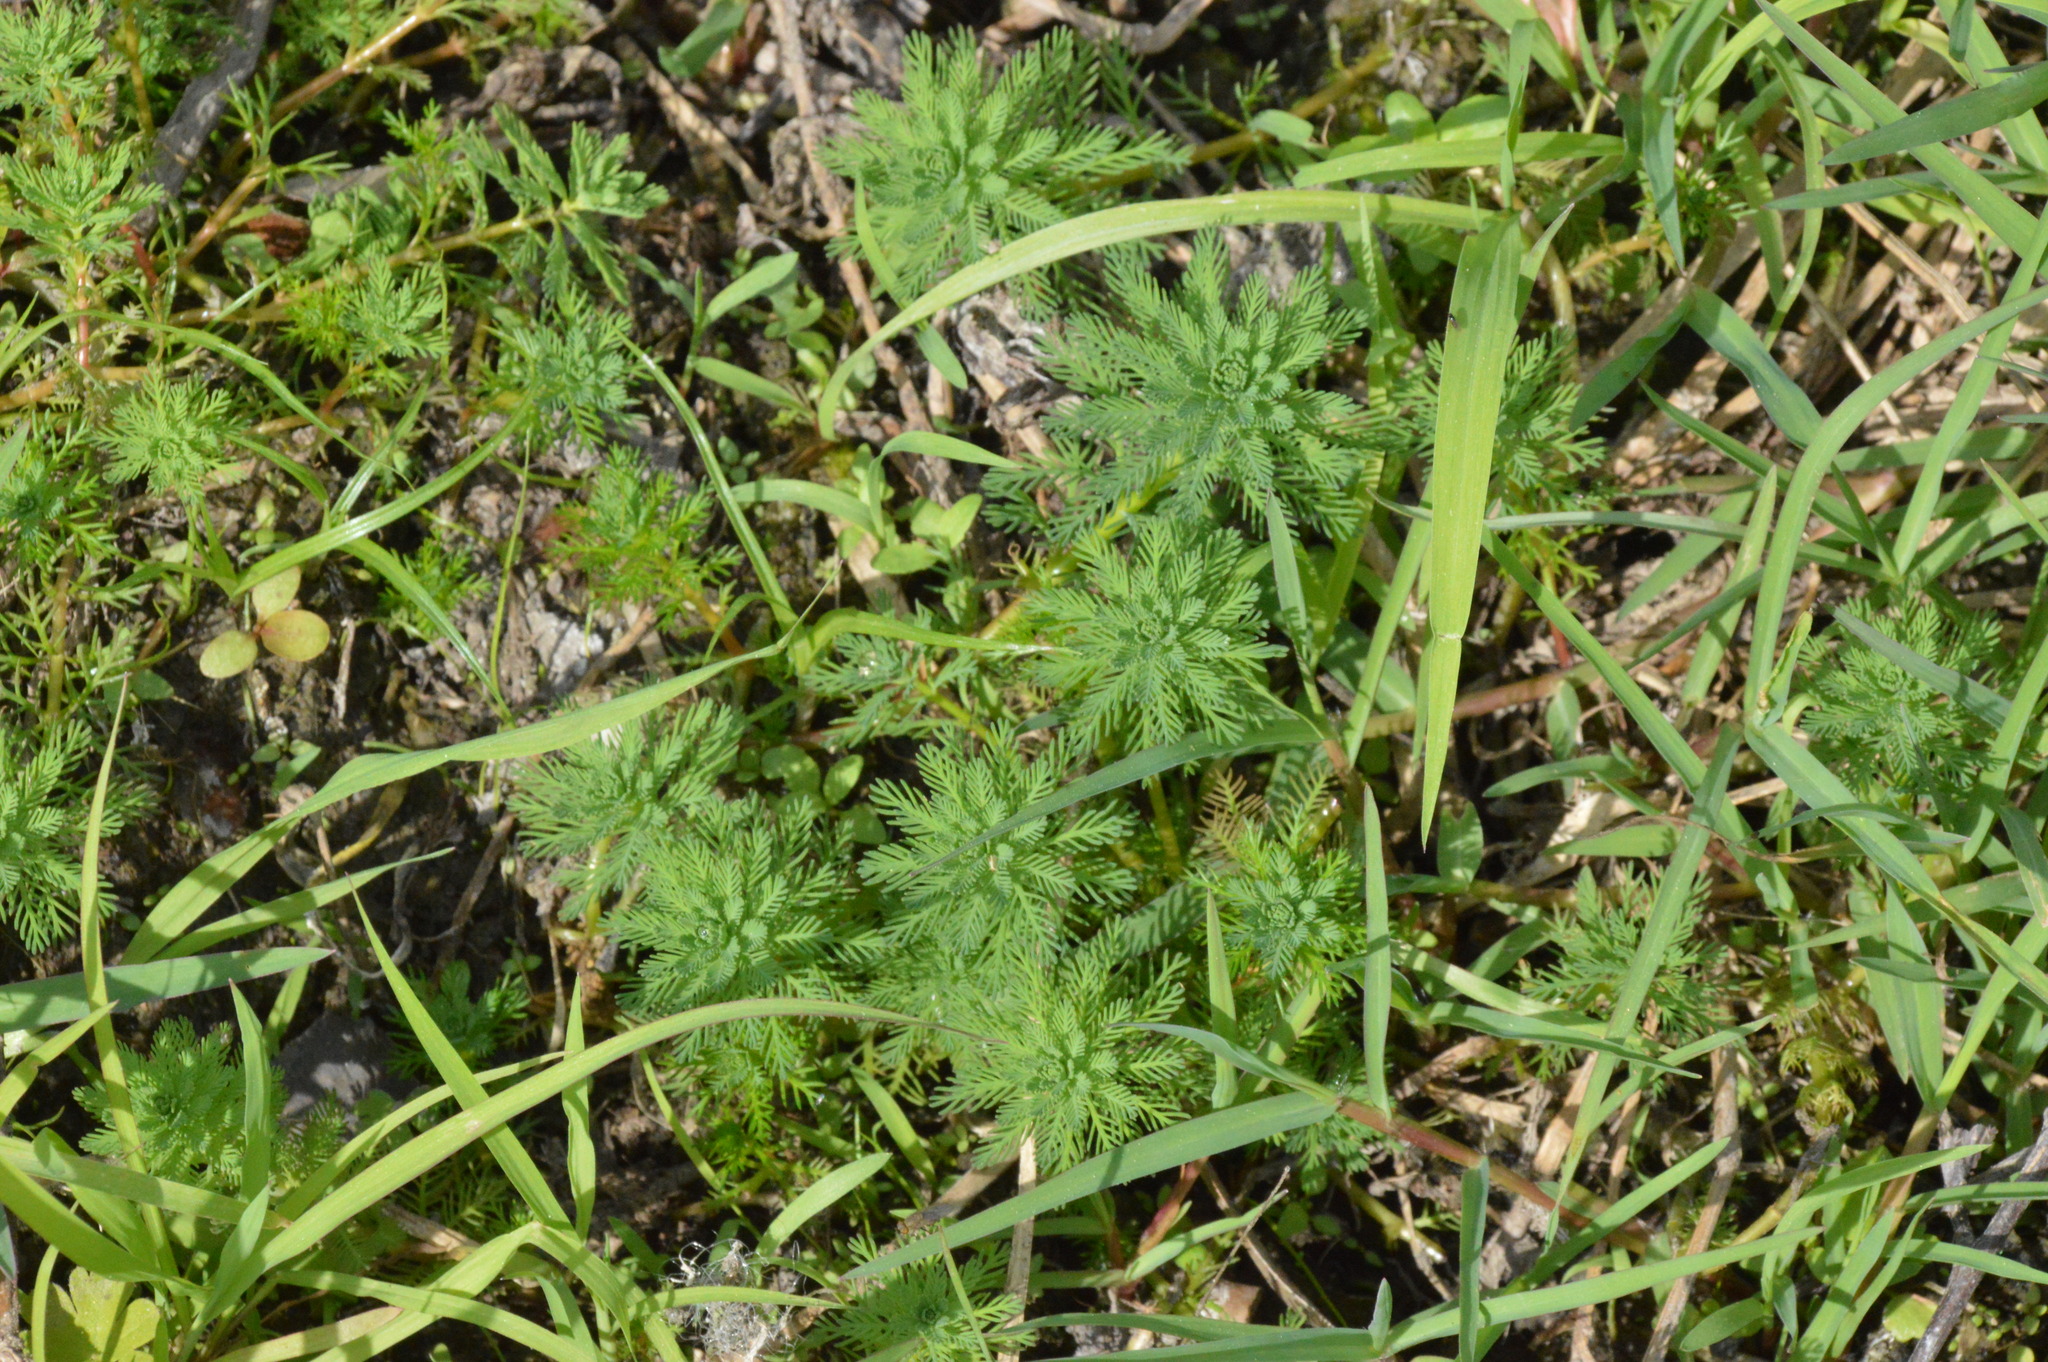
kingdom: Plantae
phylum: Tracheophyta
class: Magnoliopsida
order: Saxifragales
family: Haloragaceae
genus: Myriophyllum
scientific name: Myriophyllum aquaticum
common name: Parrot's feather
